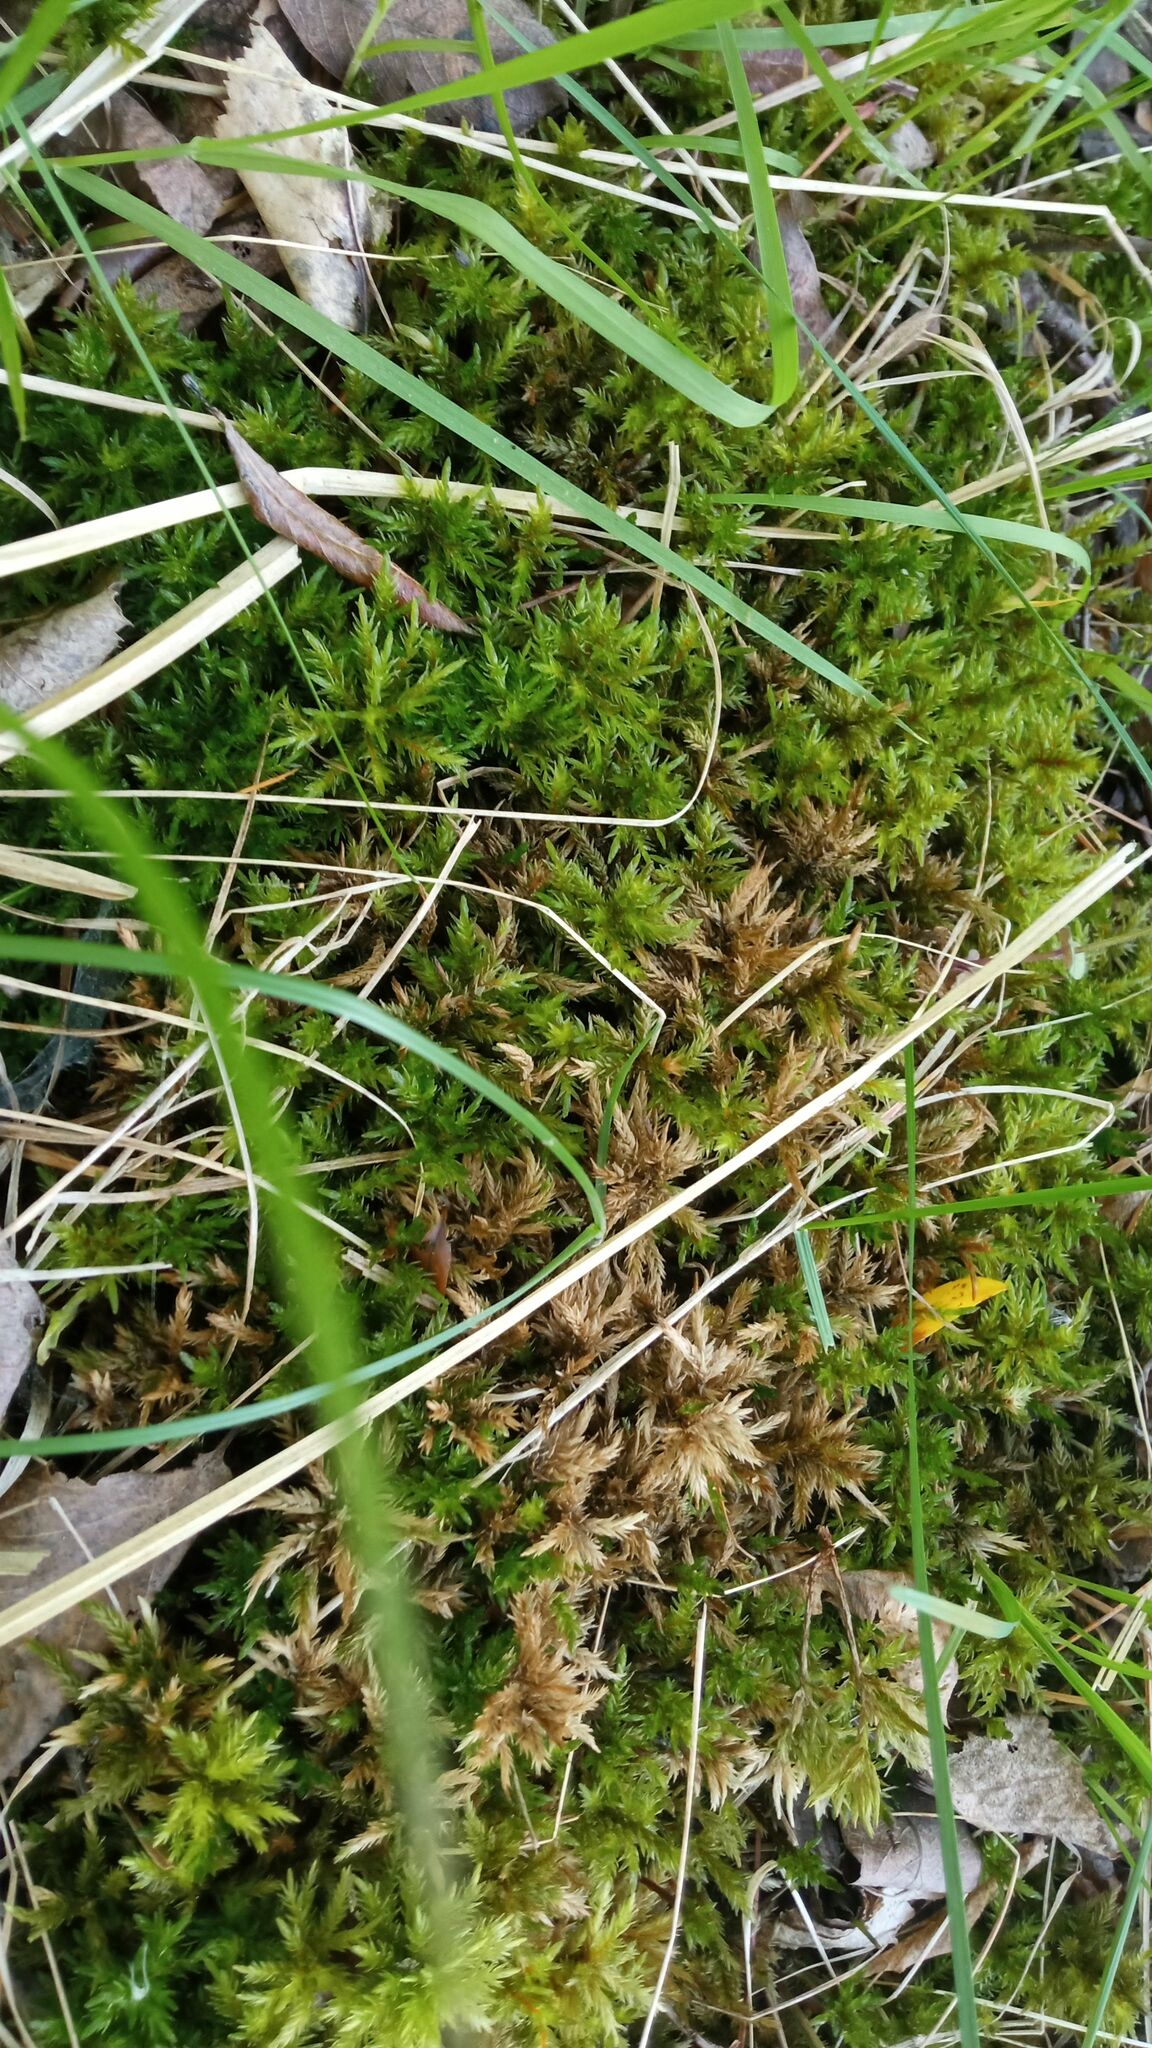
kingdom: Plantae
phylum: Bryophyta
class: Bryopsida
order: Hypnales
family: Climaciaceae
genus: Climacium
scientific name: Climacium dendroides
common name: Northern tree moss
